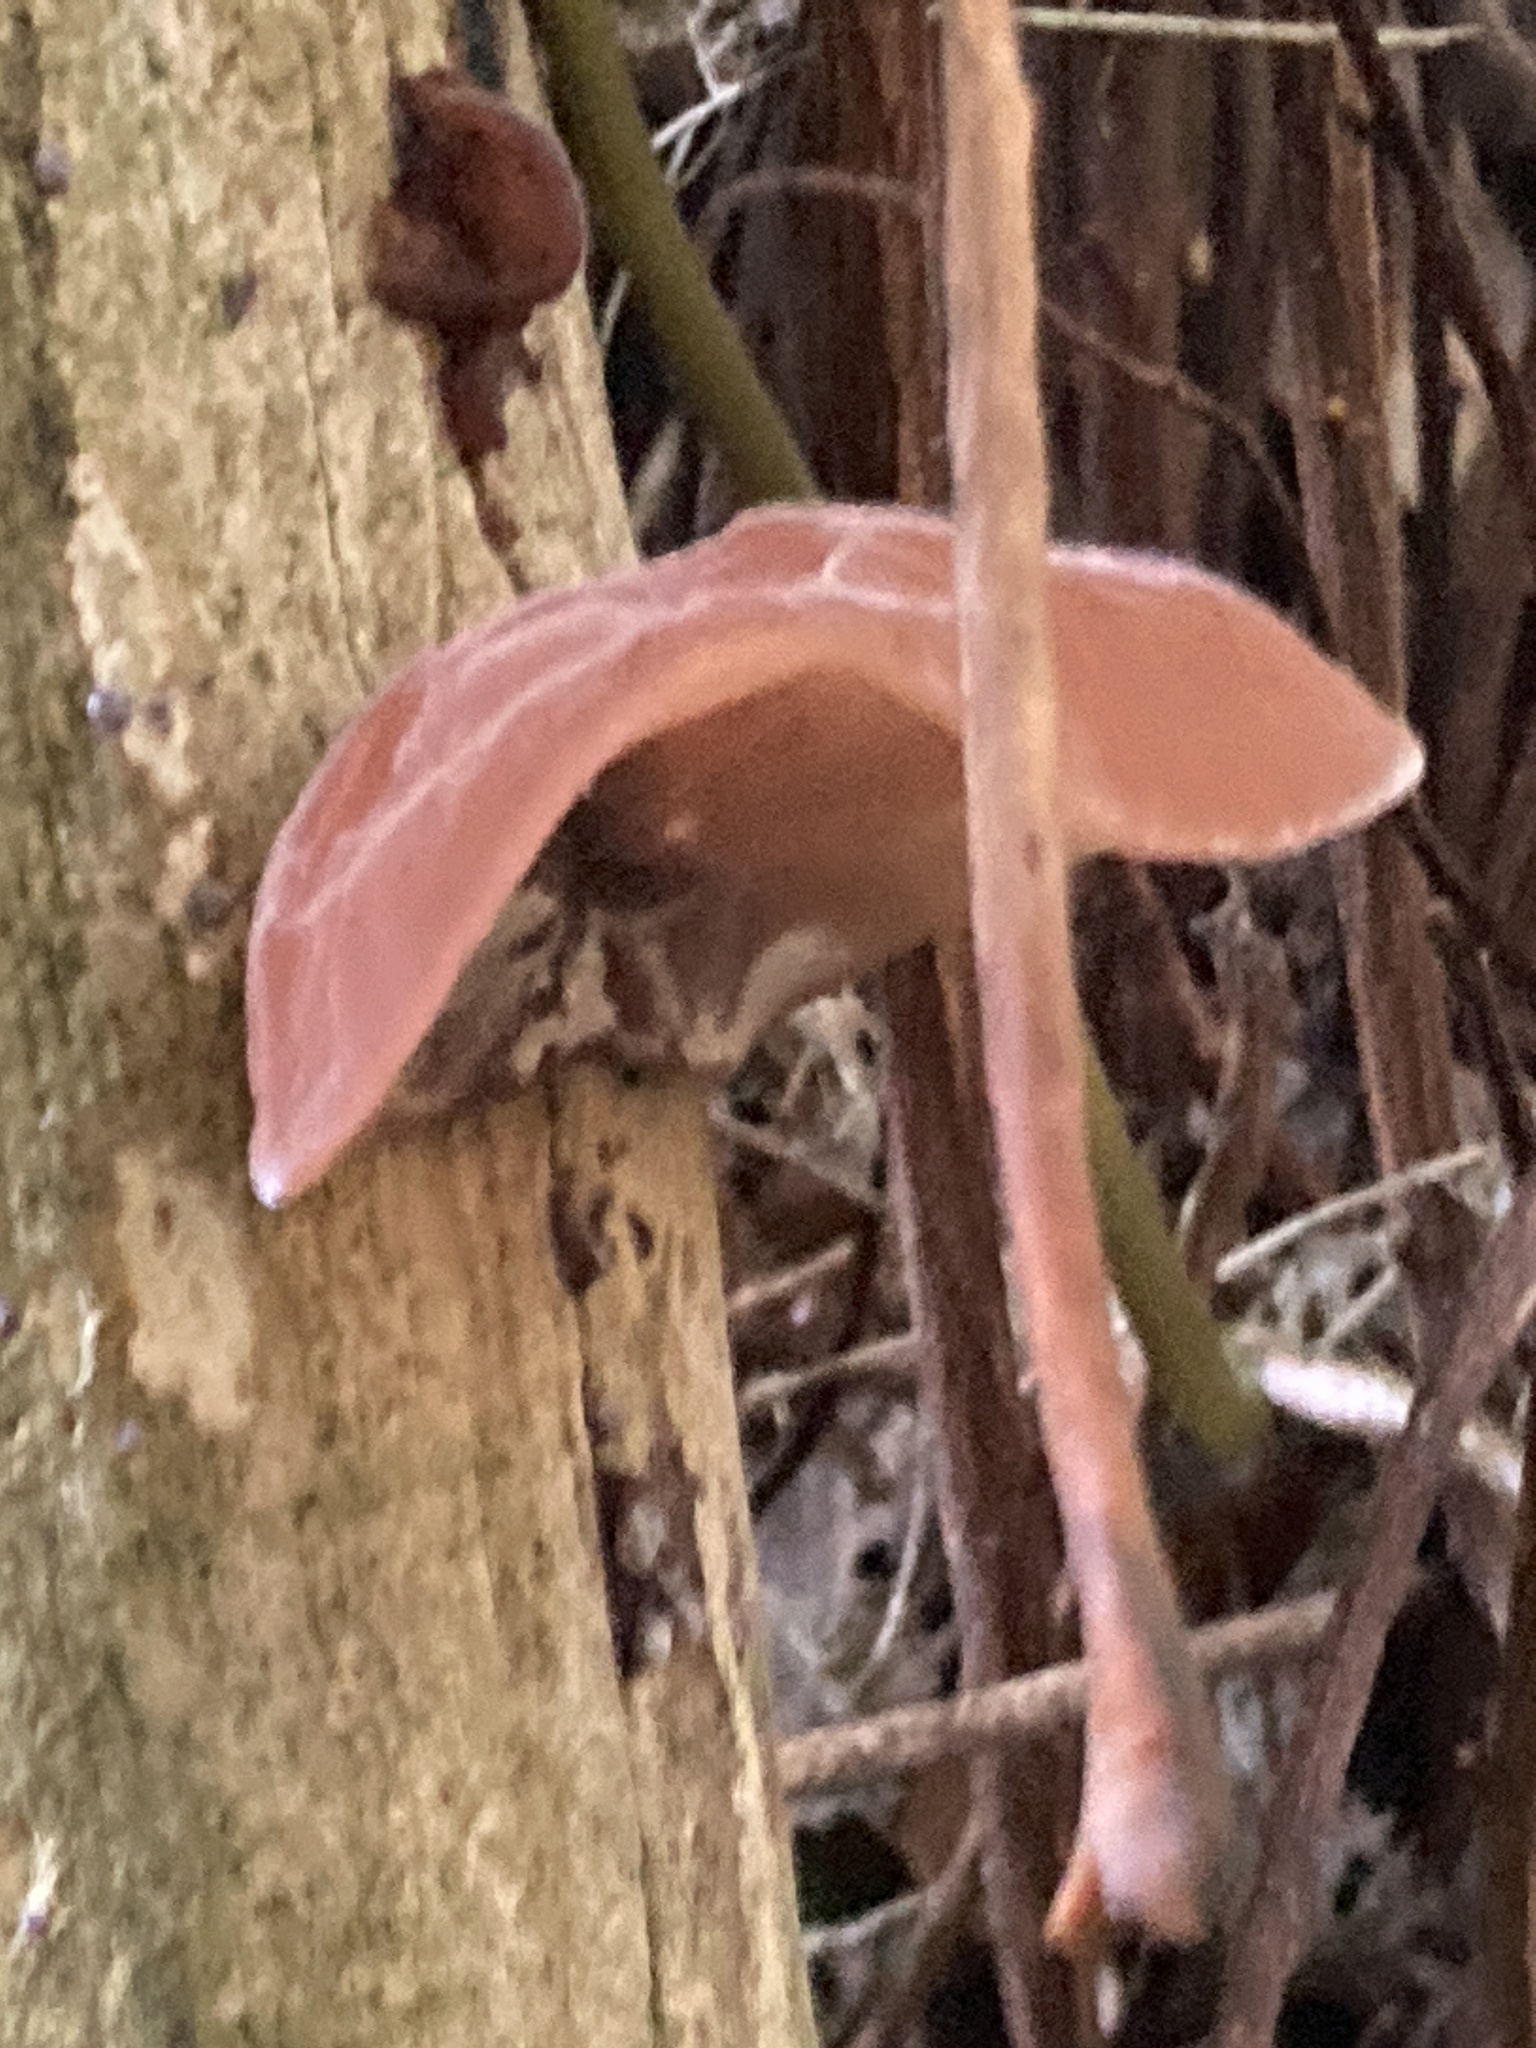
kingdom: Fungi
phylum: Basidiomycota
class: Agaricomycetes
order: Auriculariales
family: Auriculariaceae
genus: Auricularia
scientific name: Auricularia auricula-judae
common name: Jelly ear
